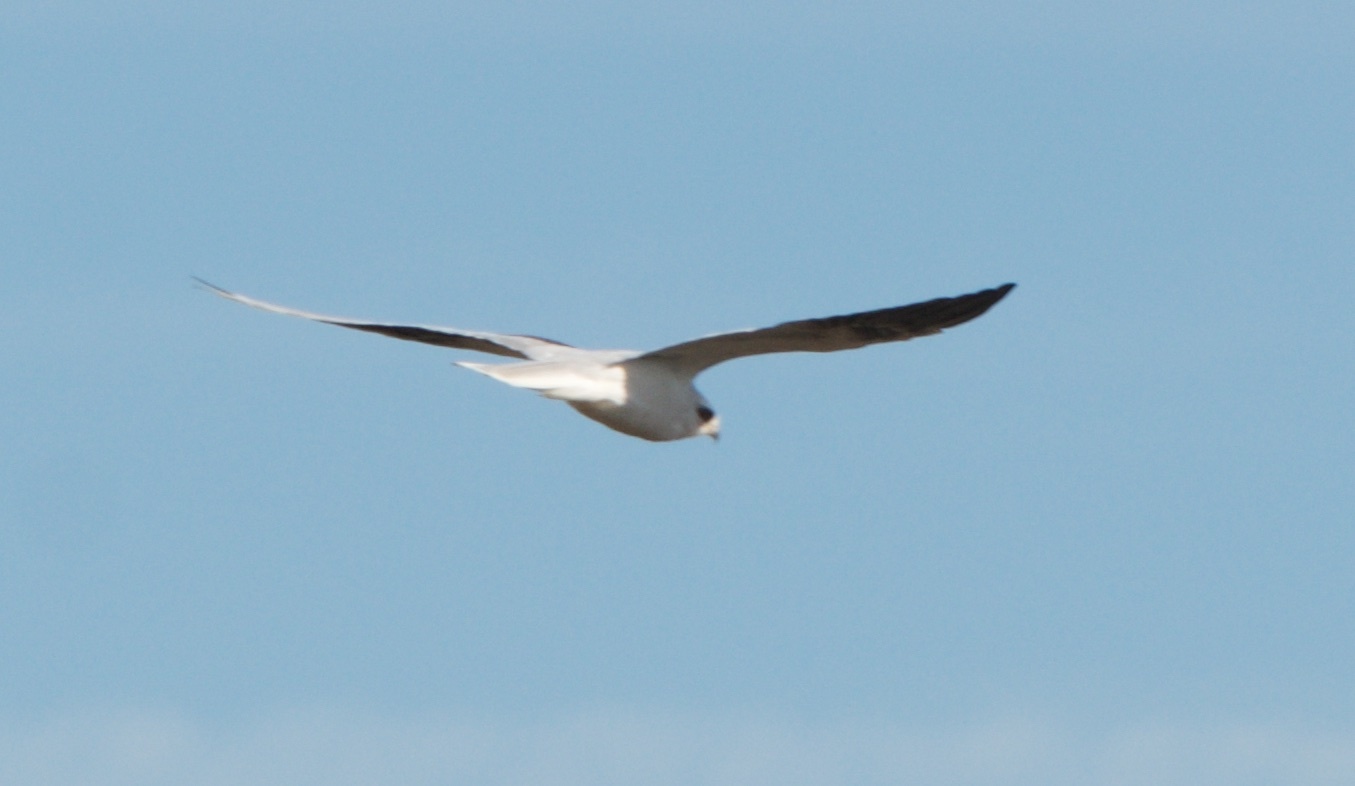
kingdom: Animalia
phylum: Chordata
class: Aves
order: Accipitriformes
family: Accipitridae
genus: Elanus
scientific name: Elanus leucurus
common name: White-tailed kite
